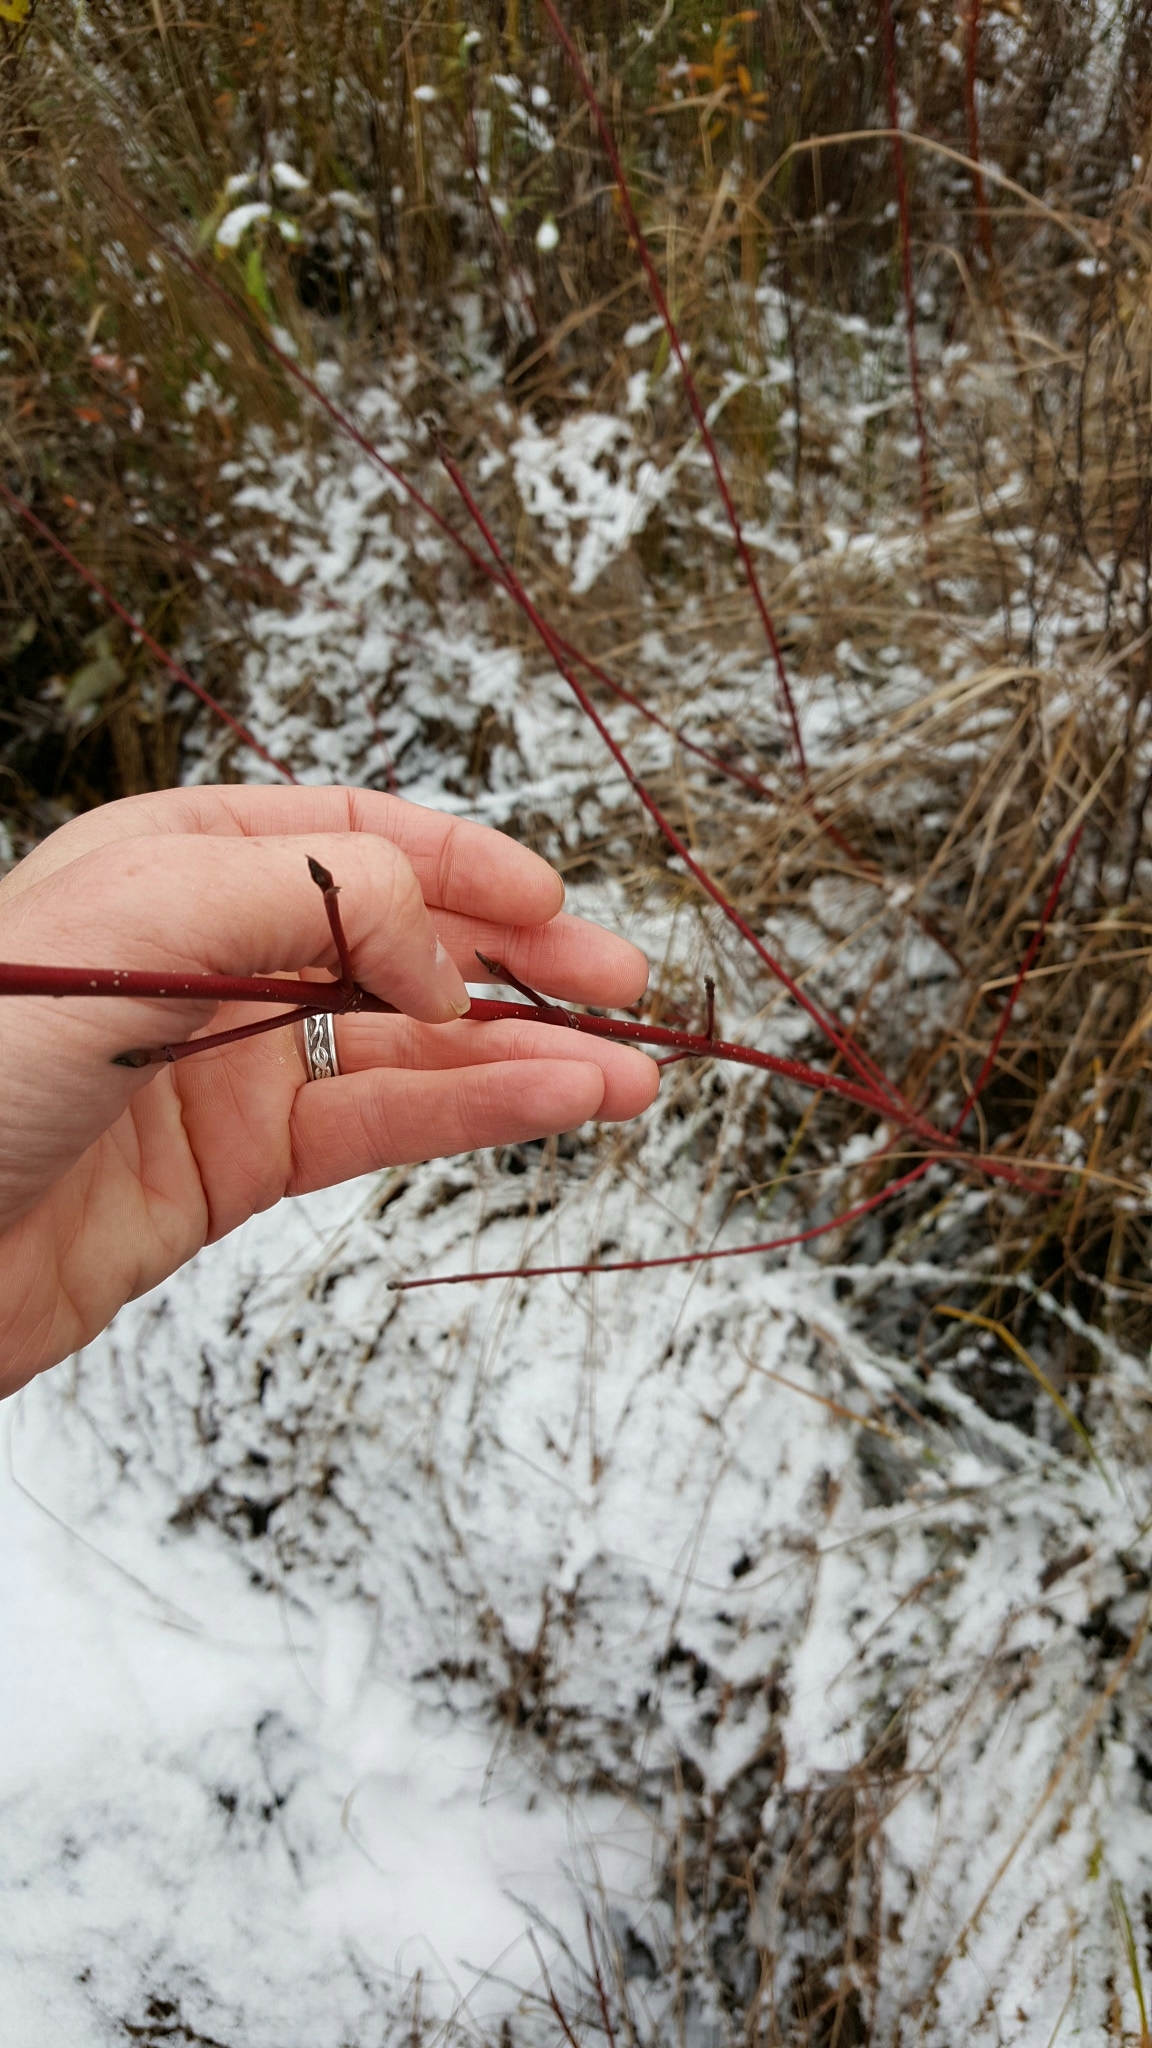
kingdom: Plantae
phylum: Tracheophyta
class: Magnoliopsida
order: Cornales
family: Cornaceae
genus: Cornus
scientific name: Cornus sericea
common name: Red-osier dogwood
